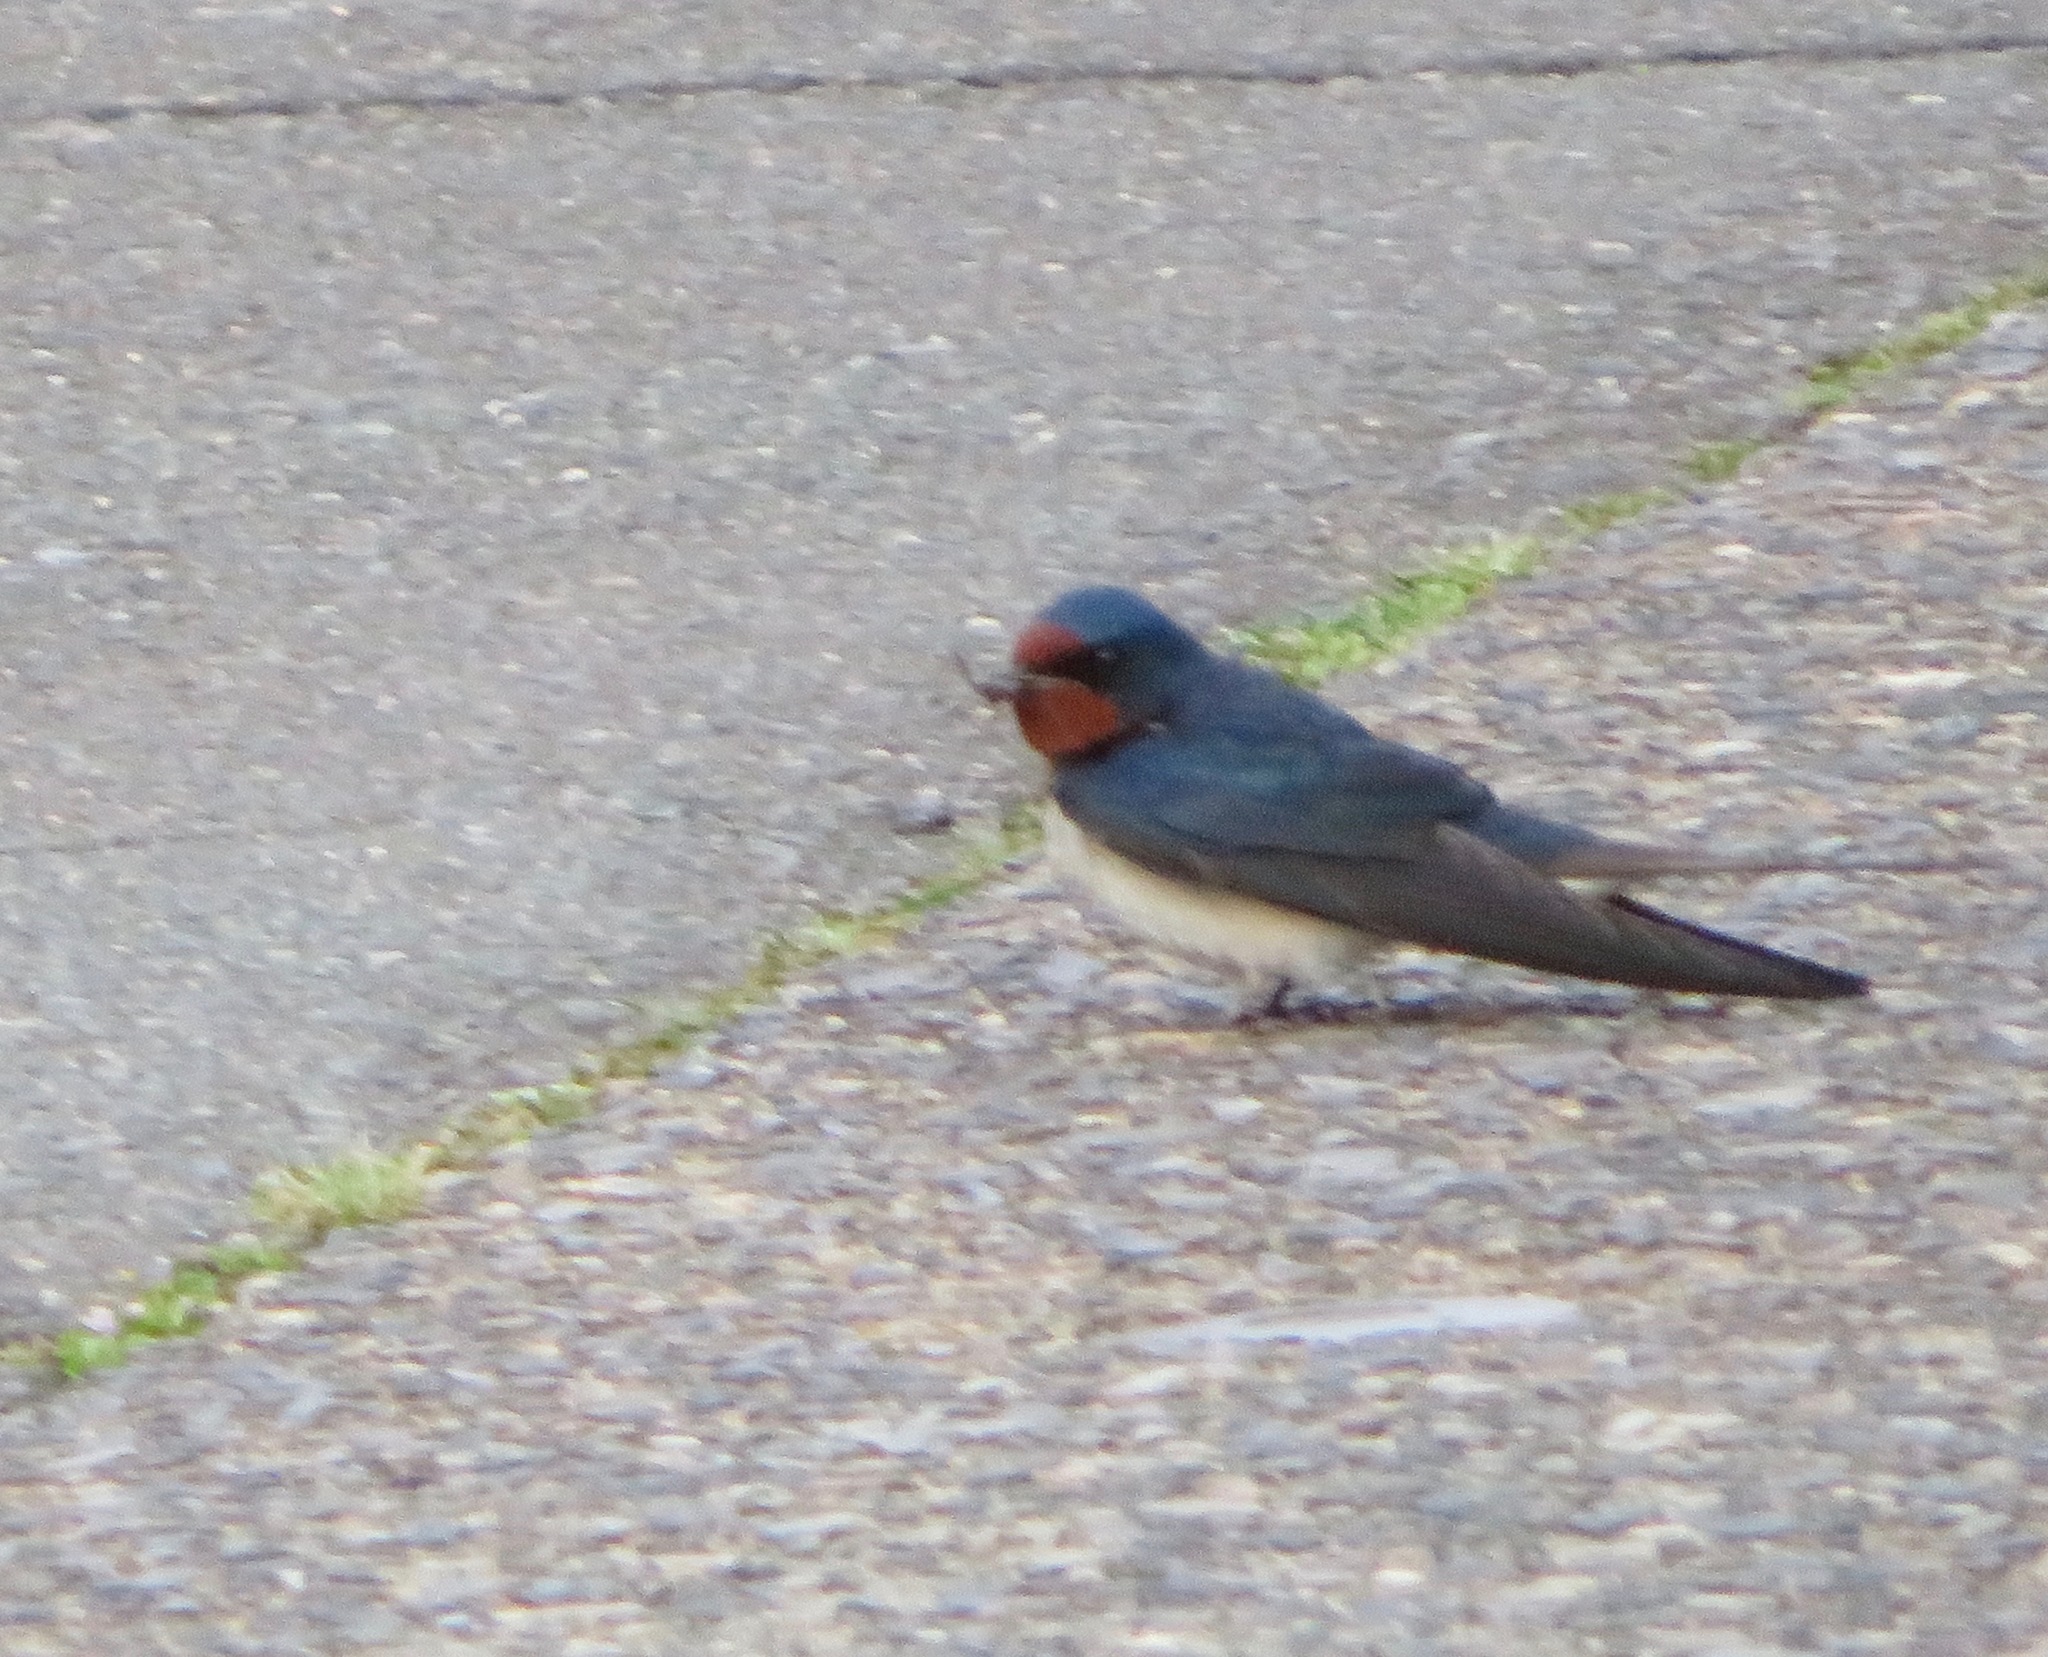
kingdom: Animalia
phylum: Chordata
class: Aves
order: Passeriformes
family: Hirundinidae
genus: Hirundo
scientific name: Hirundo rustica
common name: Barn swallow
